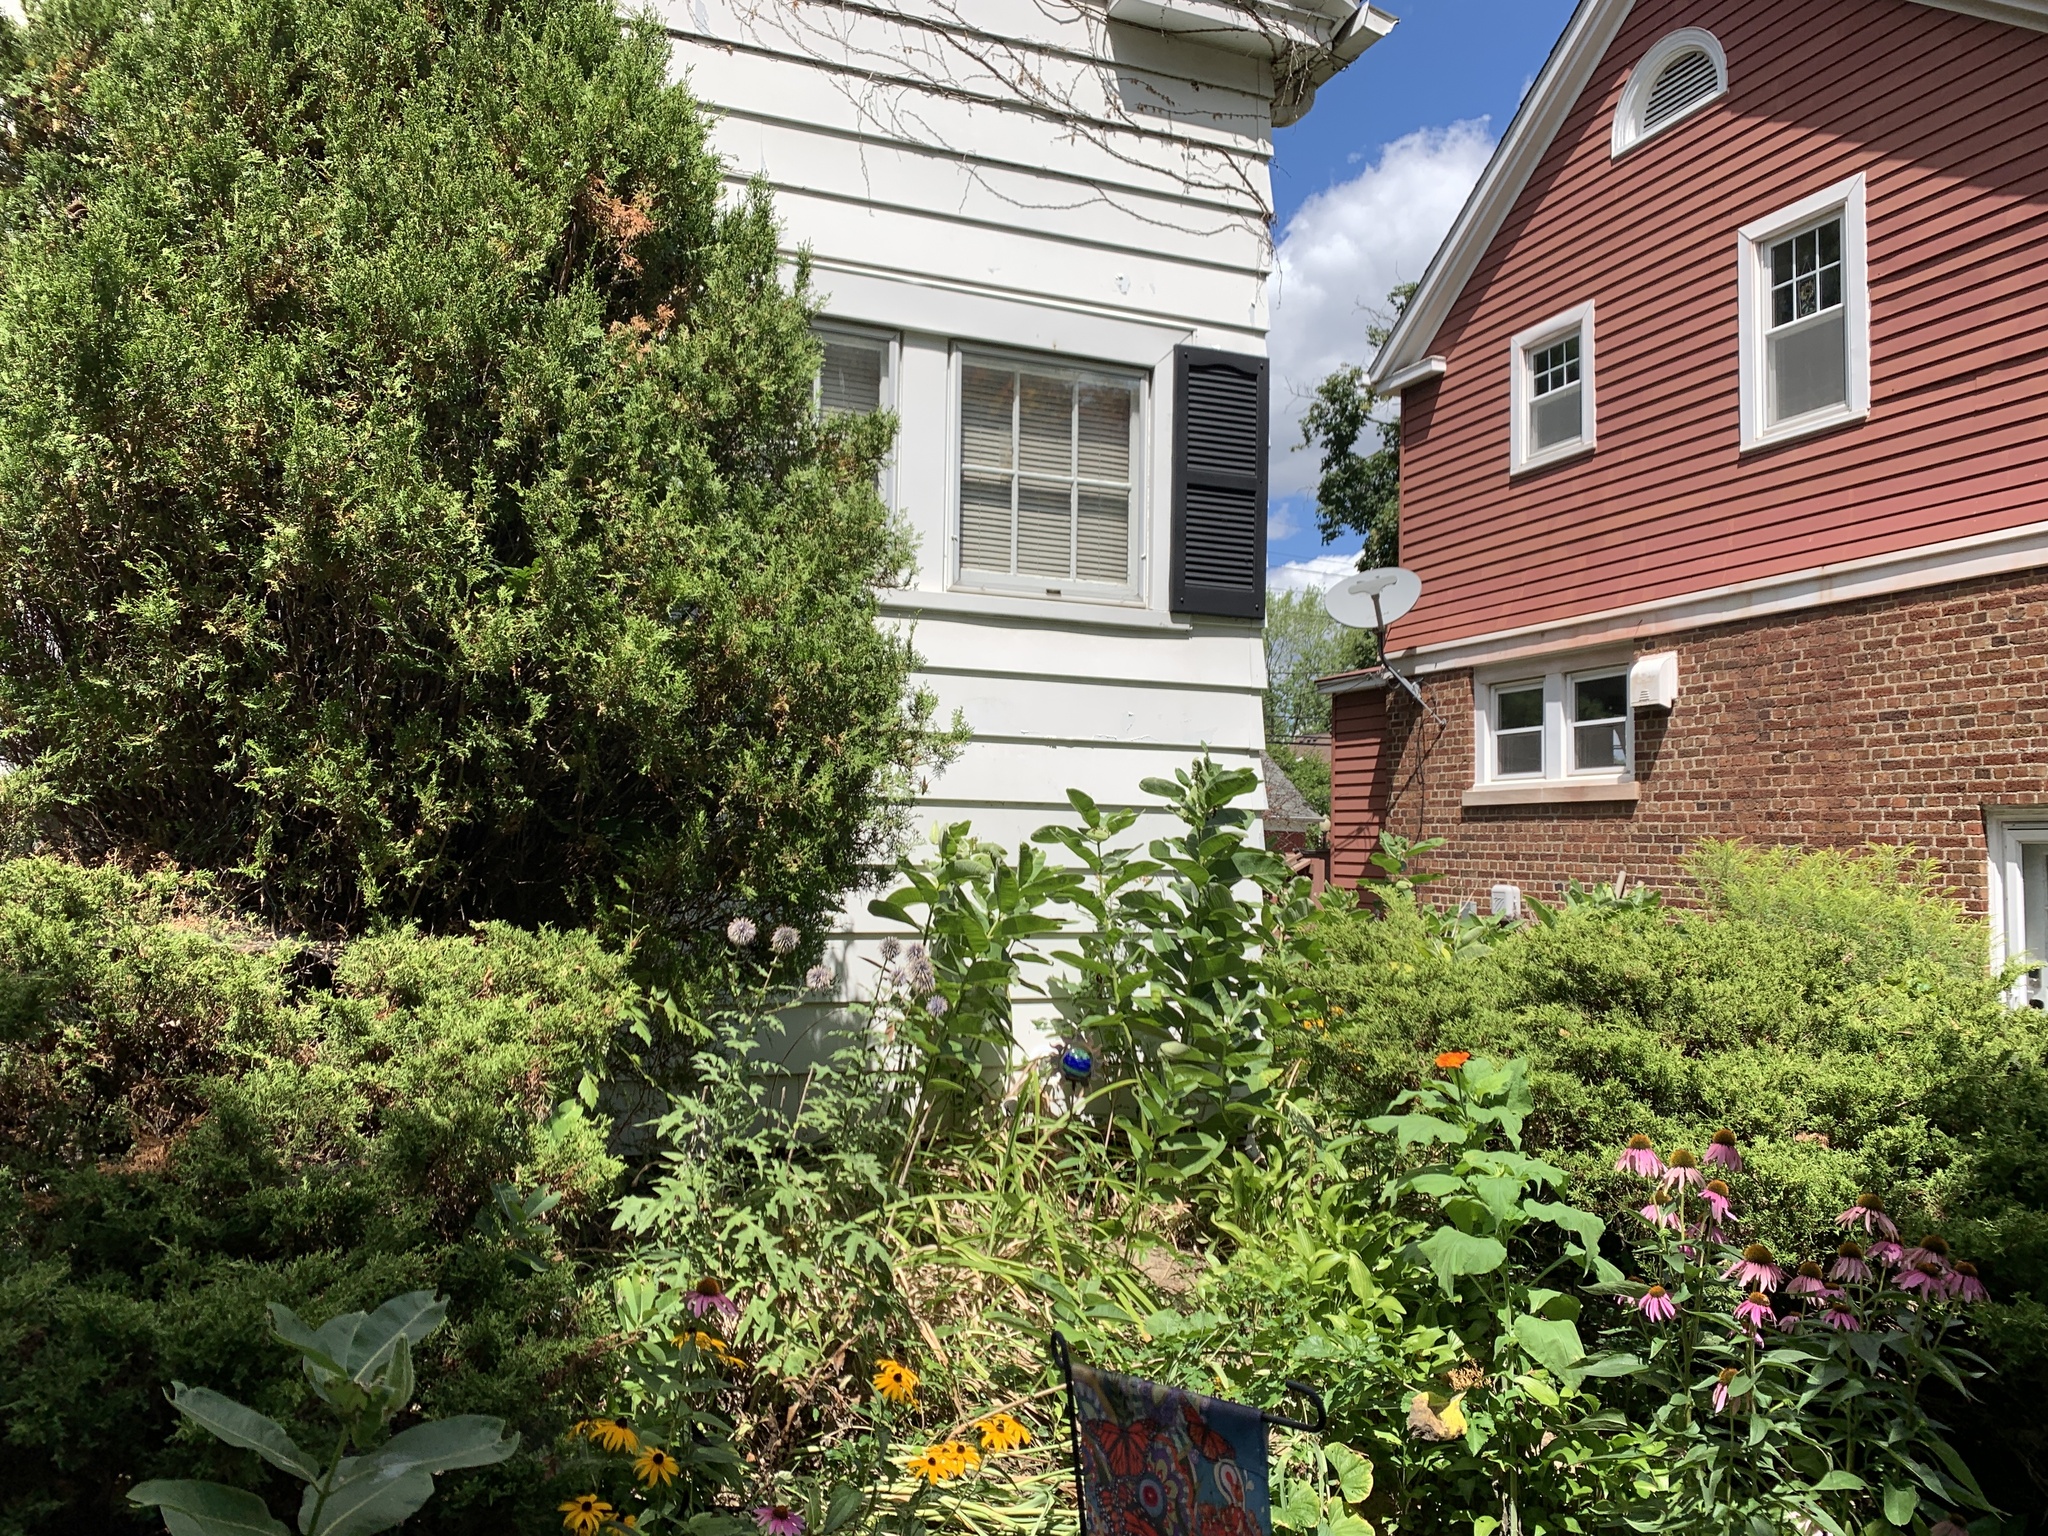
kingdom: Animalia
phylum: Arthropoda
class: Insecta
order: Lepidoptera
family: Nymphalidae
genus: Danaus
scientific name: Danaus plexippus
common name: Monarch
